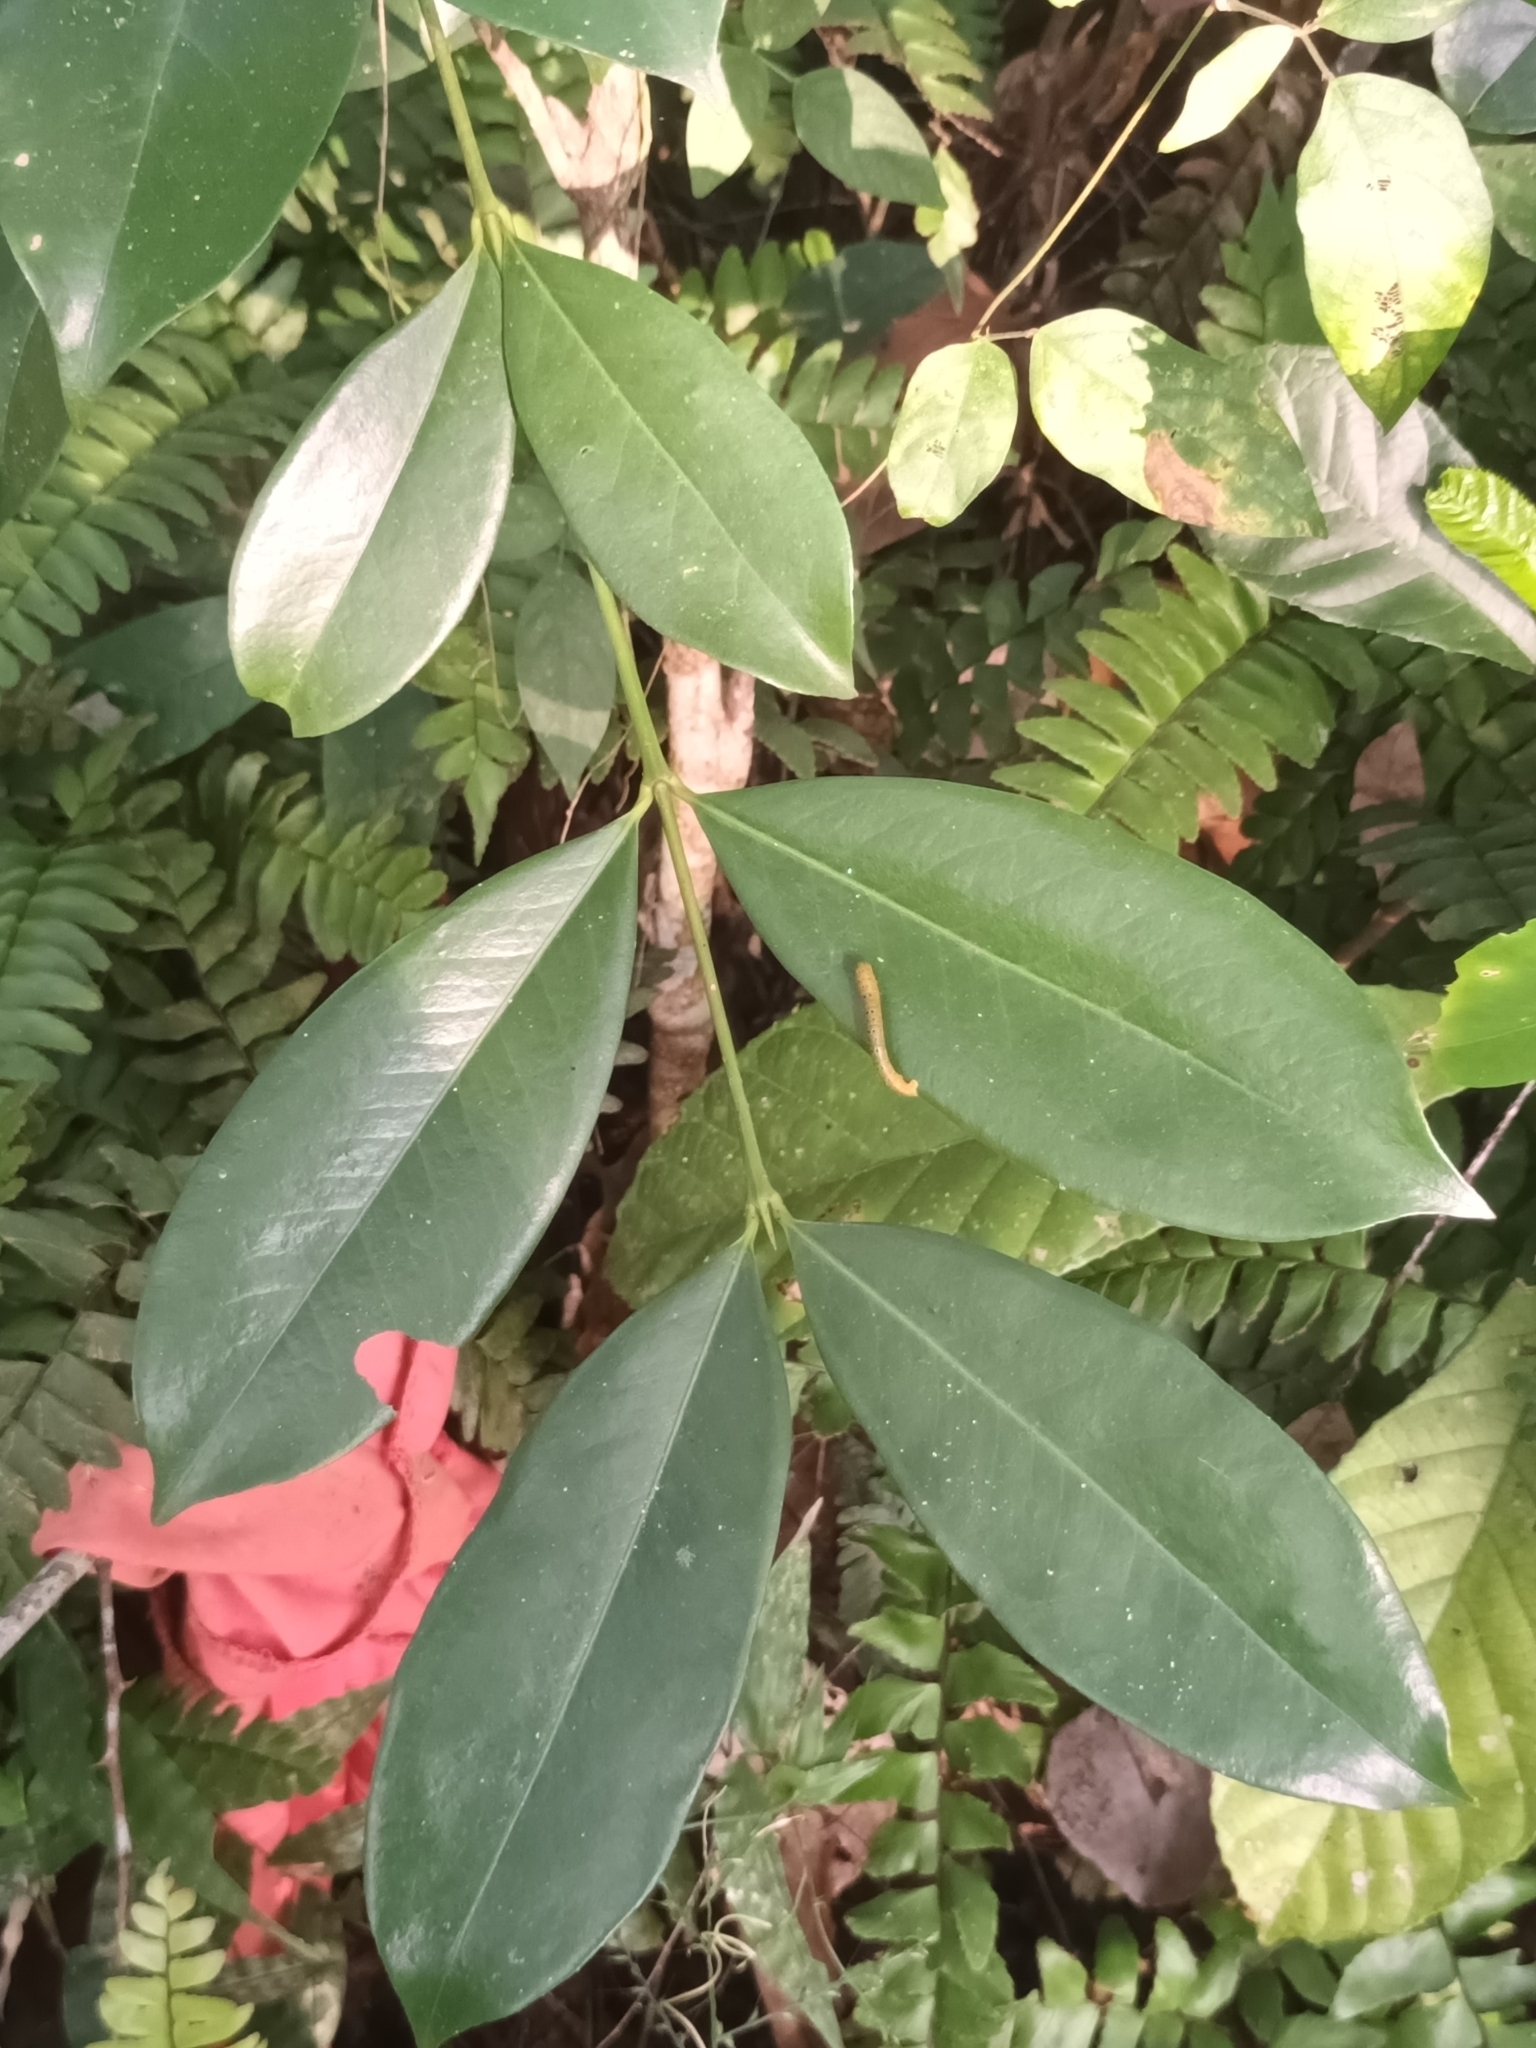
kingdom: Plantae
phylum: Tracheophyta
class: Magnoliopsida
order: Malpighiales
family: Rhizophoraceae
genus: Carallia
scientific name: Carallia brachiata
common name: Carallawood
